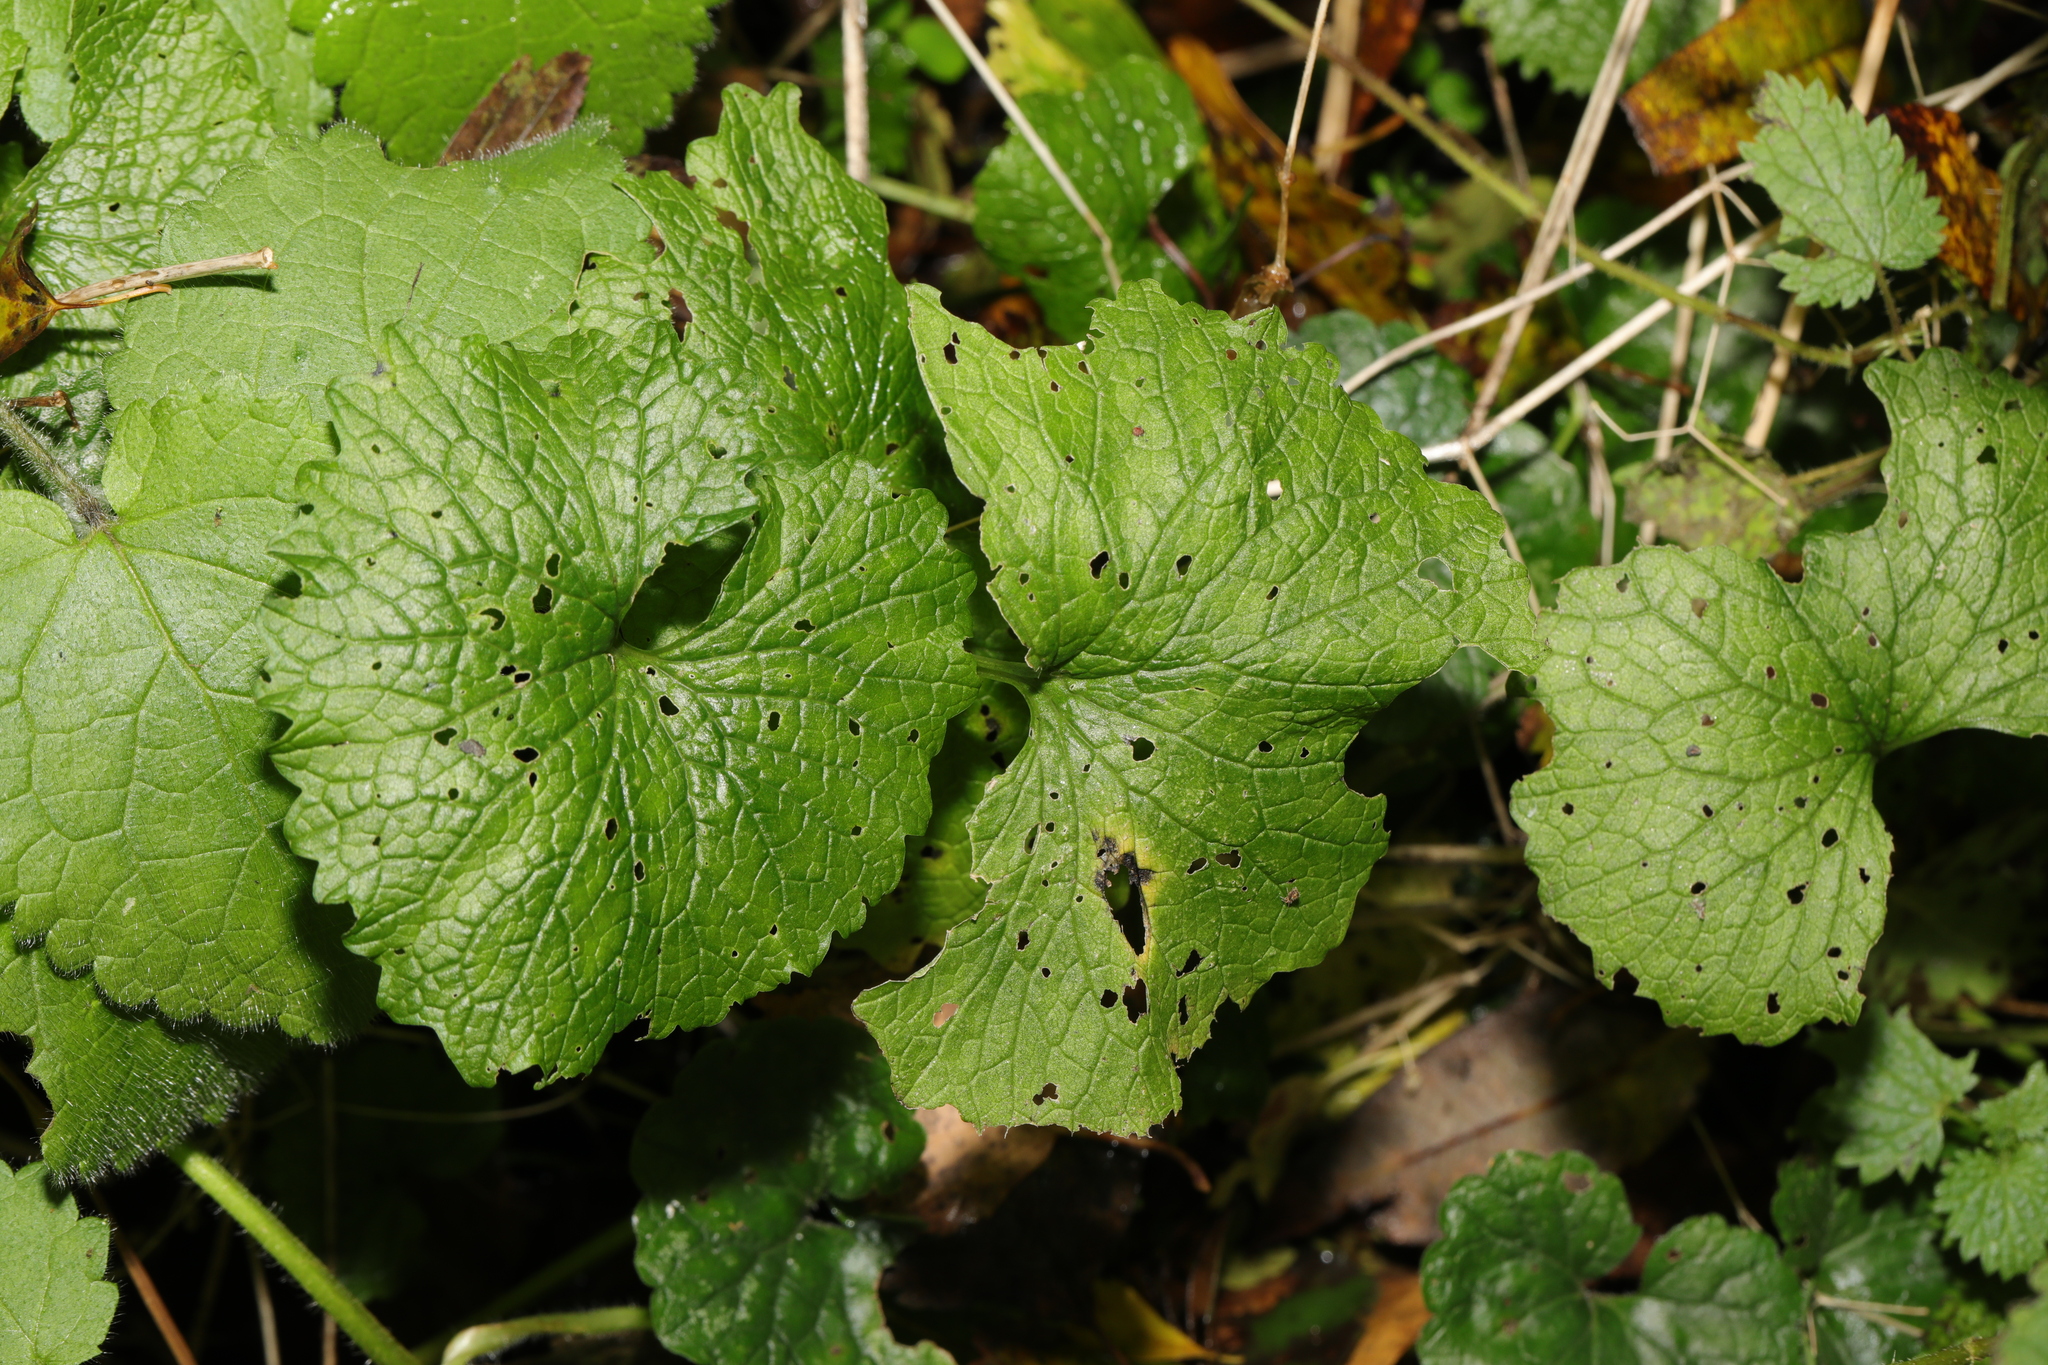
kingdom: Plantae
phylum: Tracheophyta
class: Magnoliopsida
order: Brassicales
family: Brassicaceae
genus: Alliaria
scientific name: Alliaria petiolata
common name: Garlic mustard
